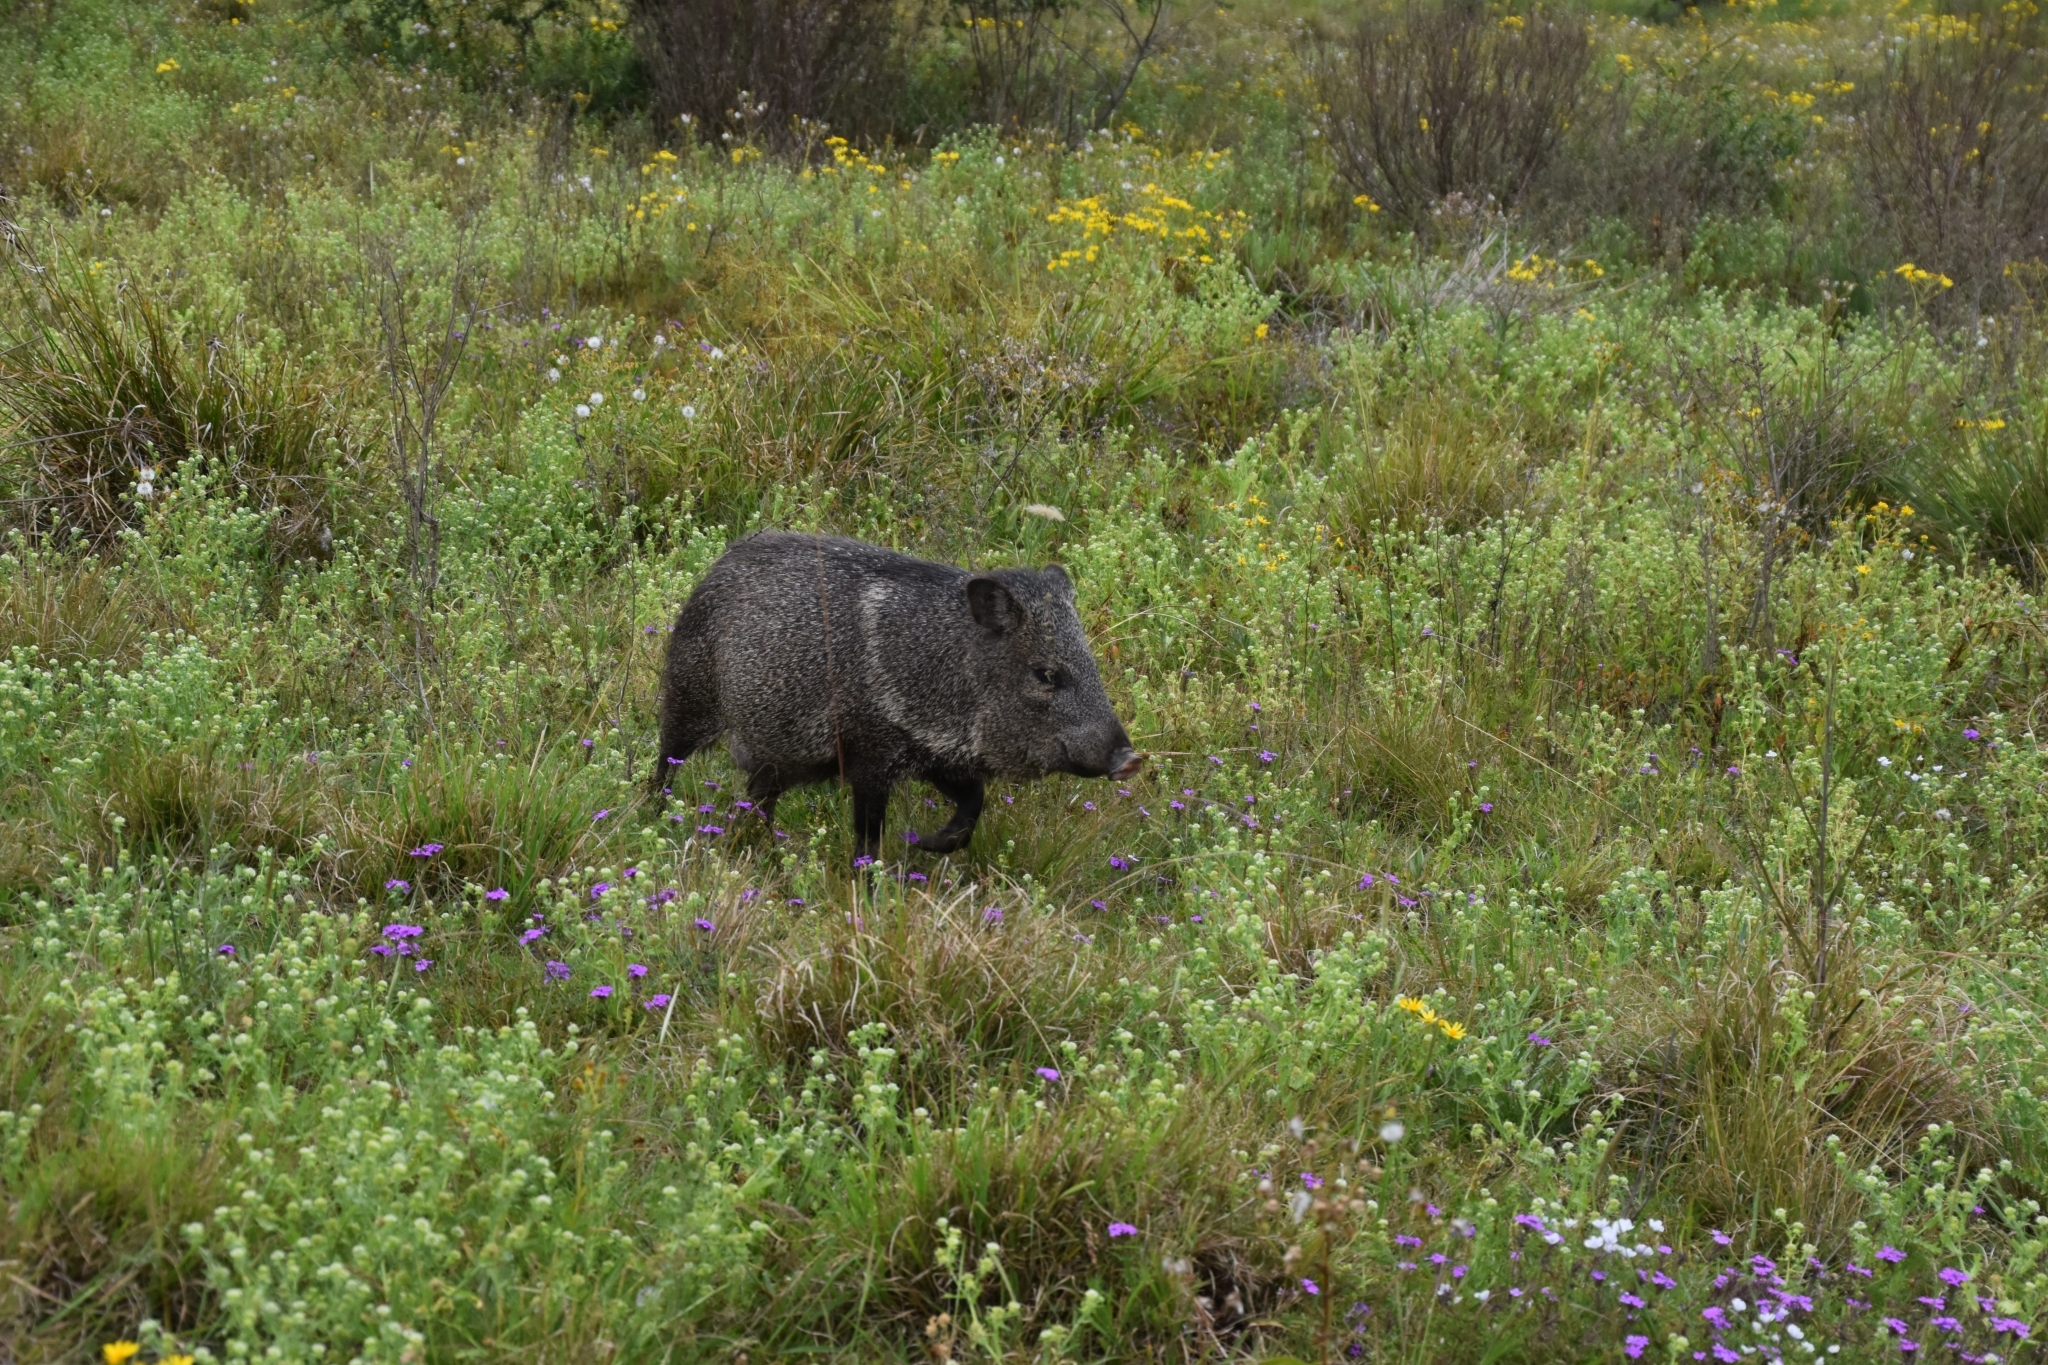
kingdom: Animalia
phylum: Chordata
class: Mammalia
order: Artiodactyla
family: Tayassuidae
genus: Pecari
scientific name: Pecari tajacu
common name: Collared peccary
